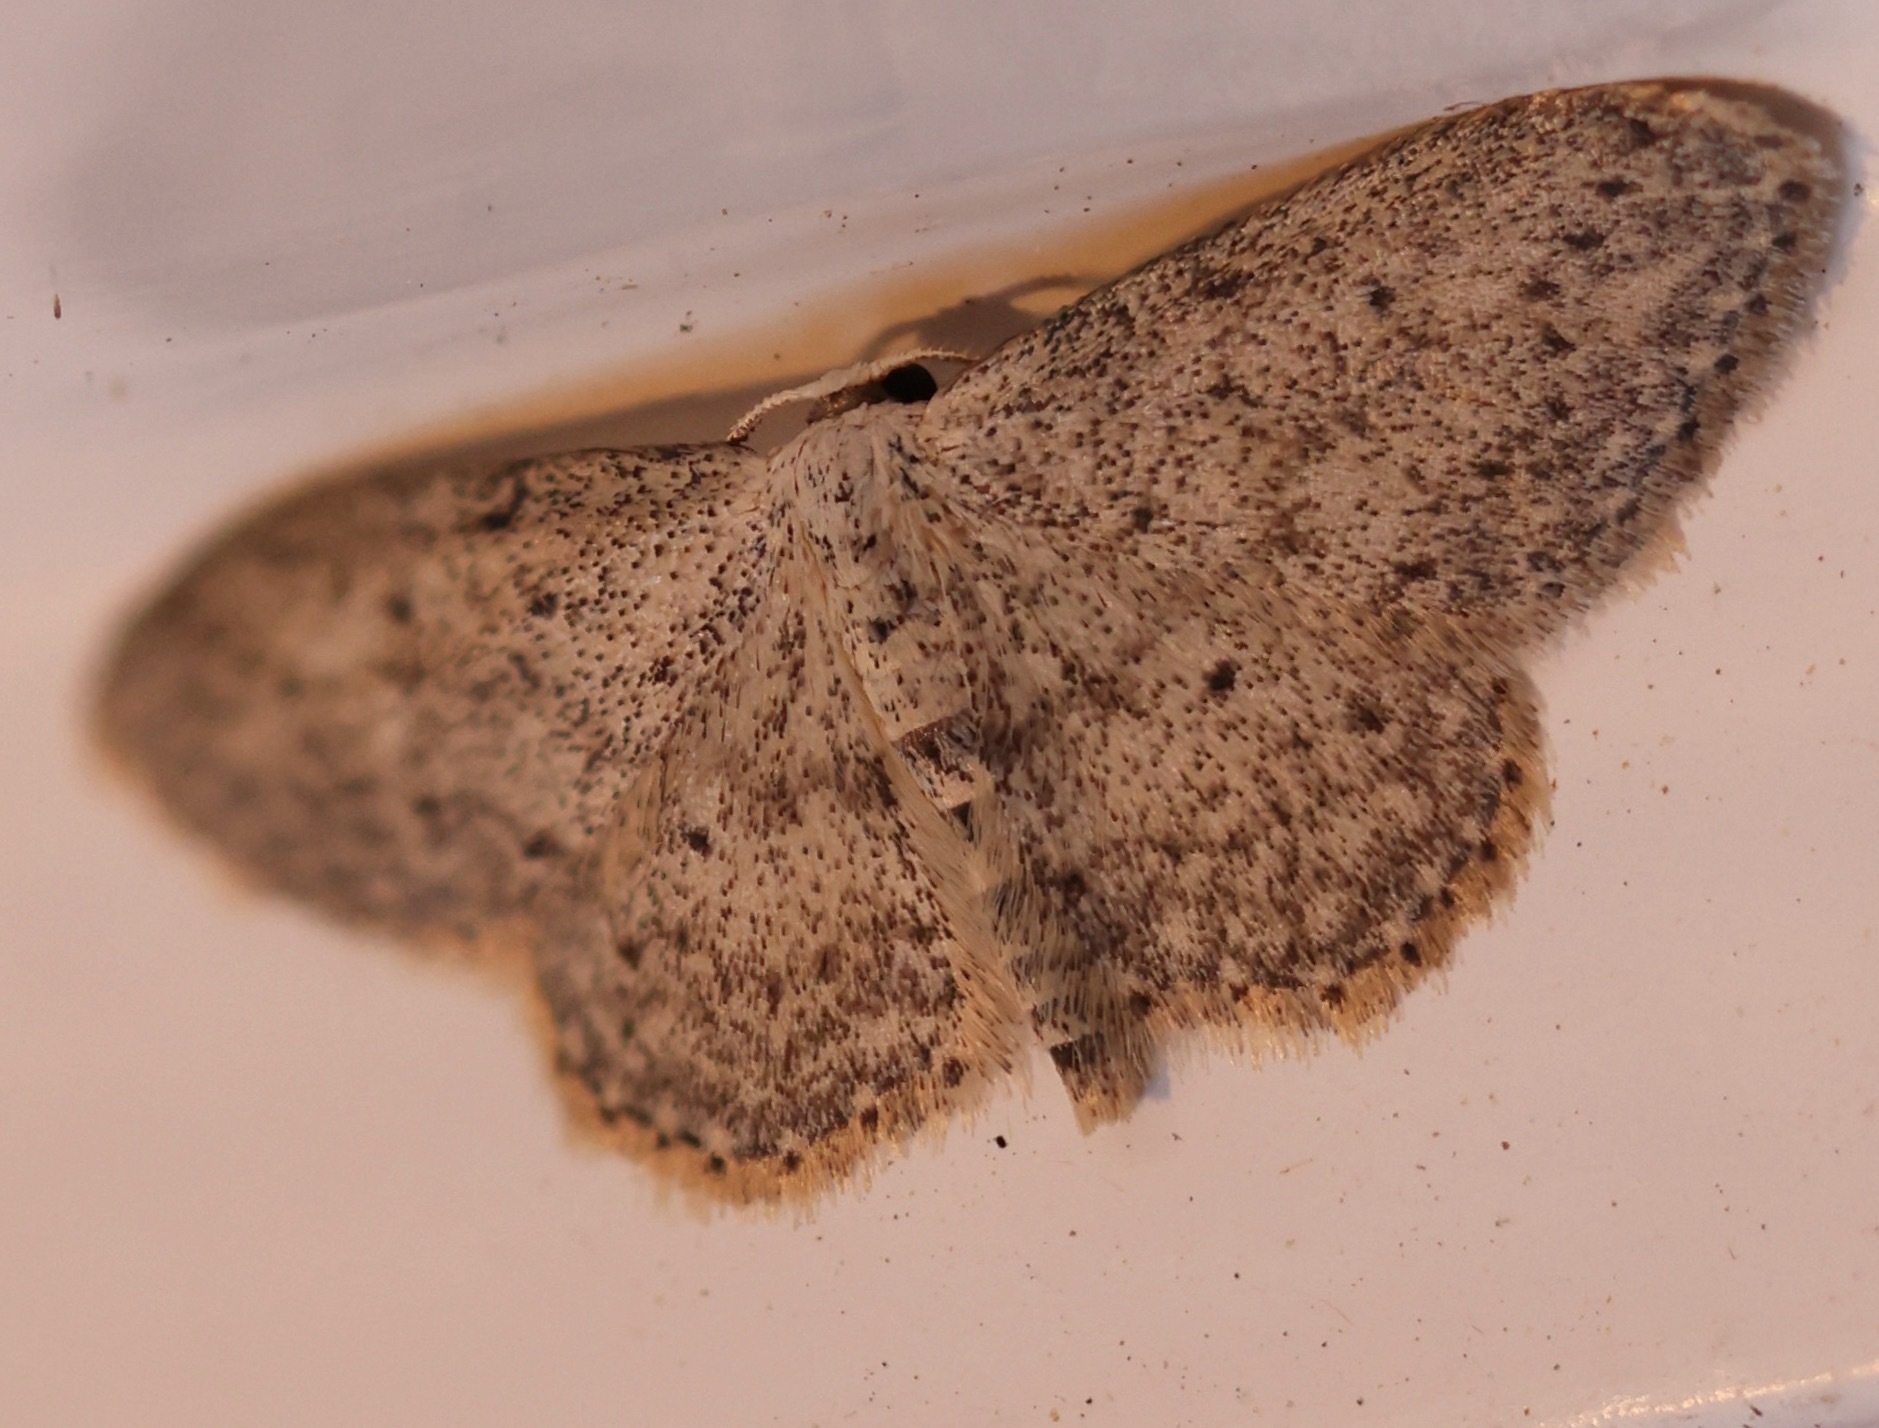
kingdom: Animalia
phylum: Arthropoda
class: Insecta
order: Lepidoptera
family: Geometridae
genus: Idaea
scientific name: Idaea seriata
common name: Small dusty wave
